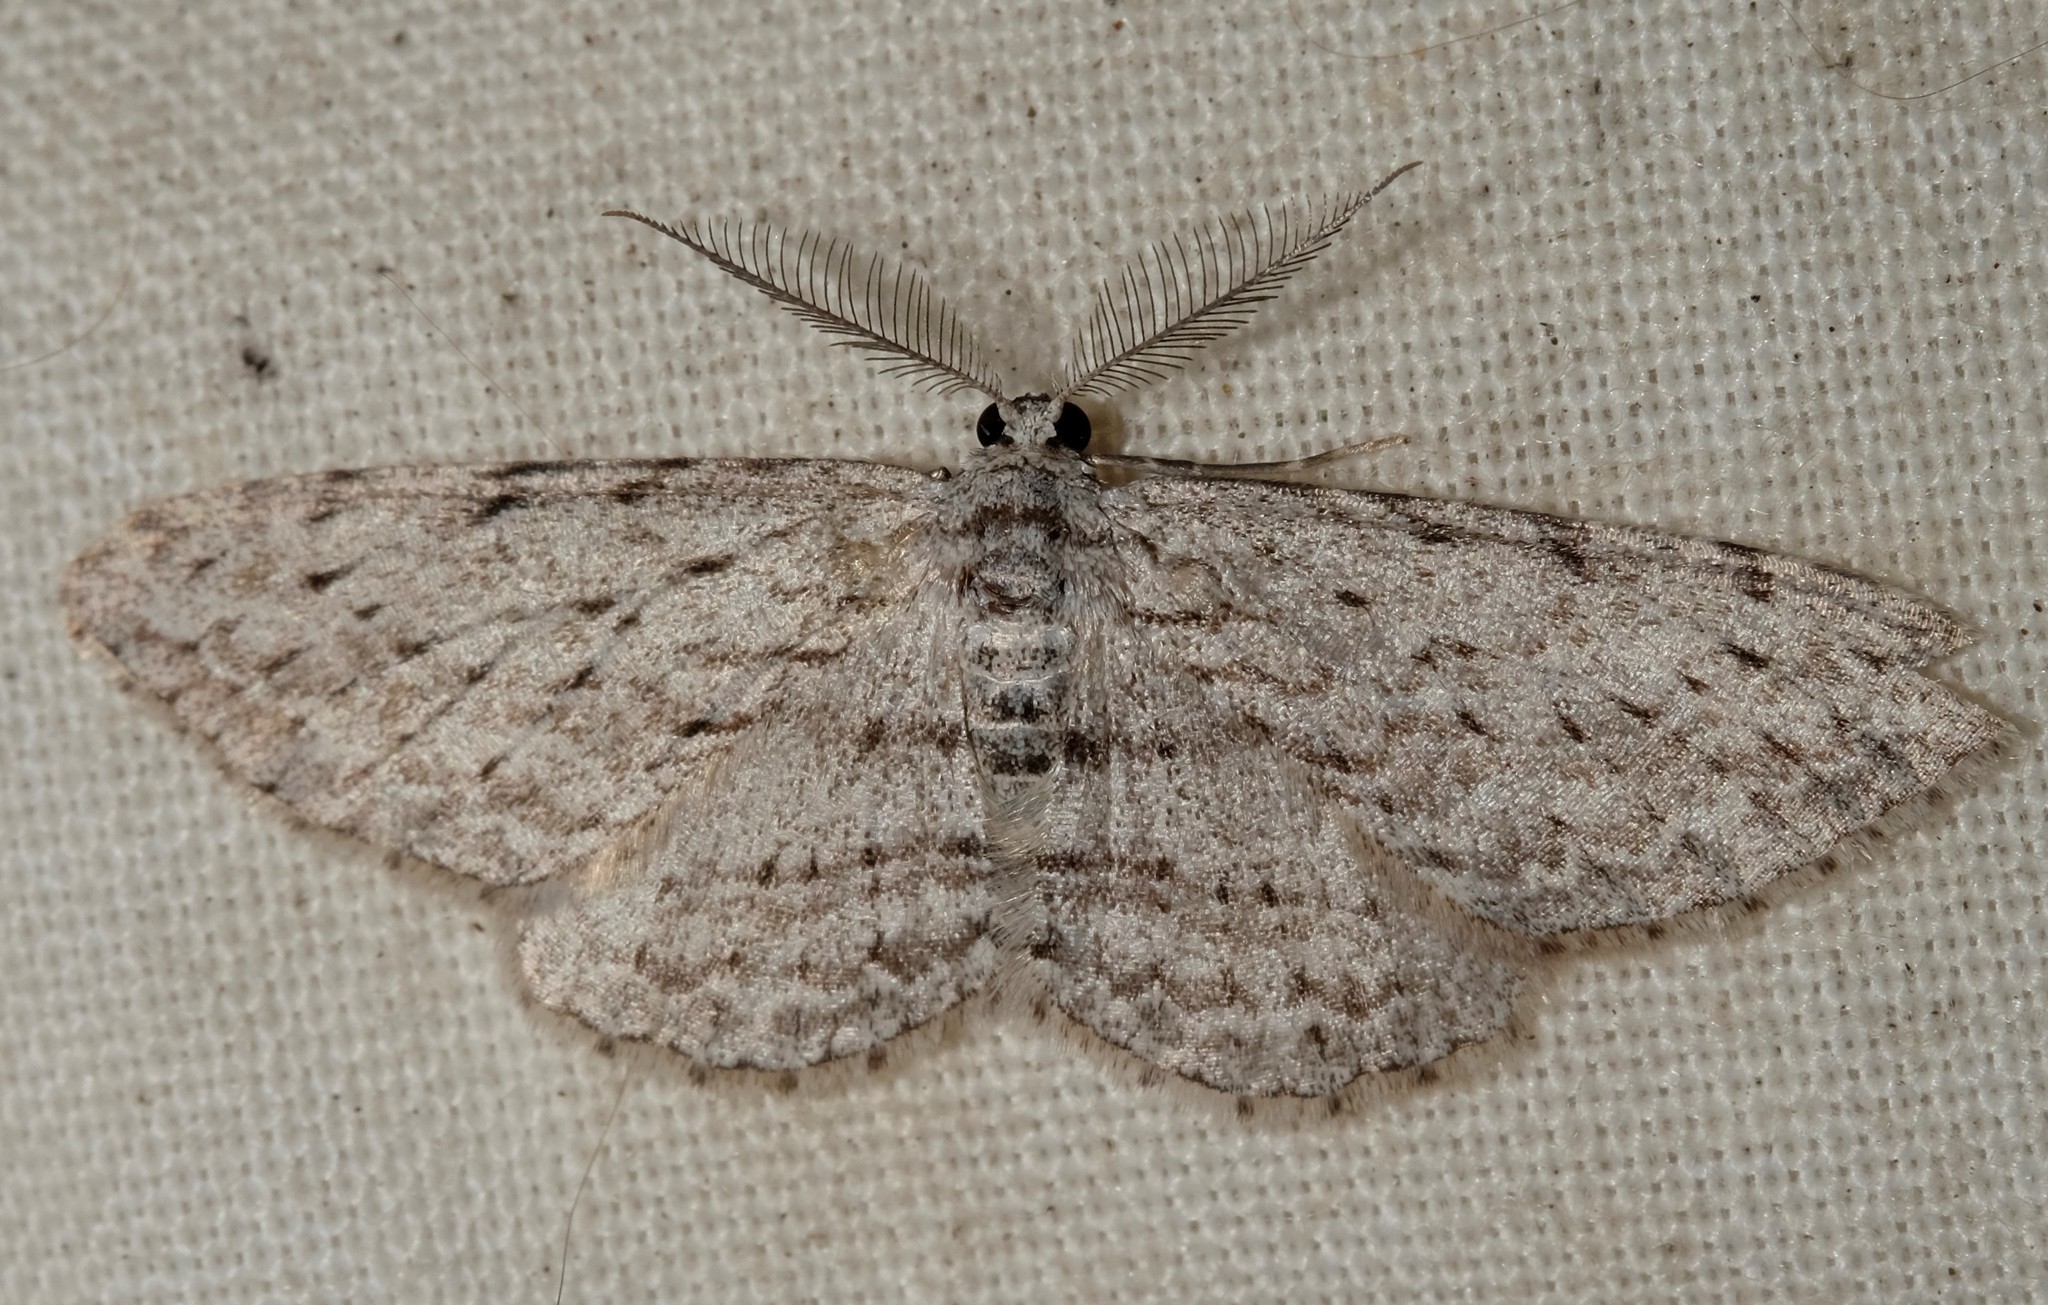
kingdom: Animalia
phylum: Arthropoda
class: Insecta
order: Lepidoptera
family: Geometridae
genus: Phelotis
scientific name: Phelotis cognata
